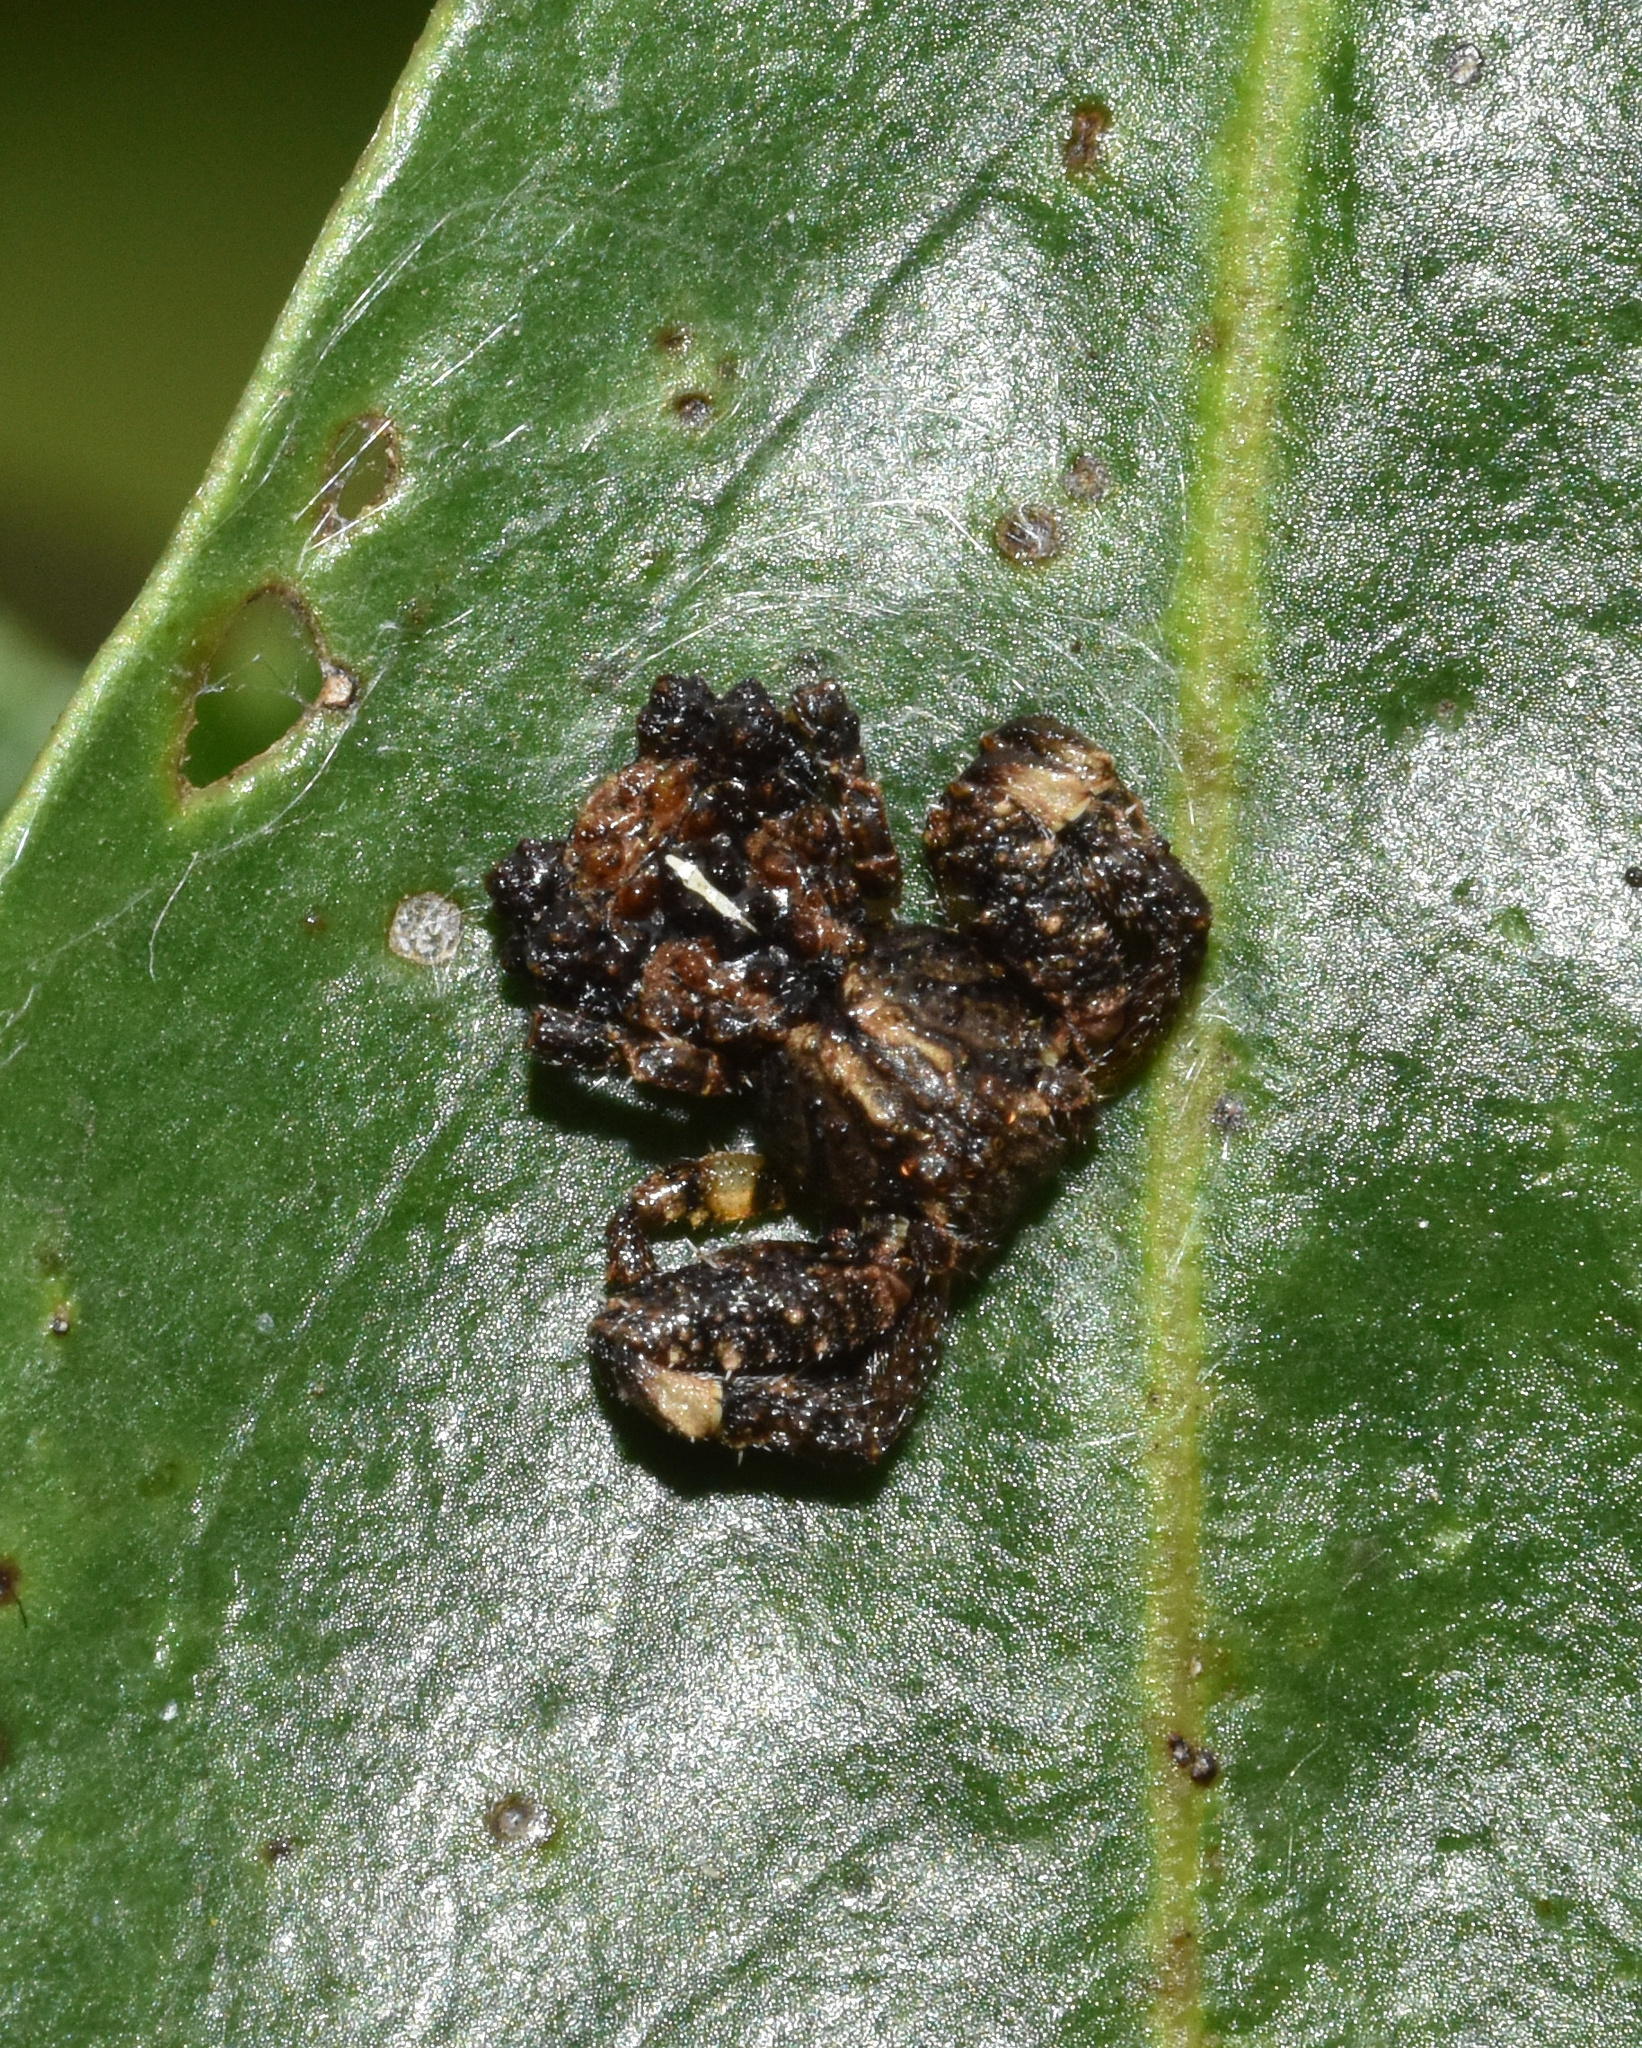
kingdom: Animalia
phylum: Arthropoda
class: Arachnida
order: Araneae
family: Thomisidae
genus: Phrynarachne
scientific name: Phrynarachne rugosa
